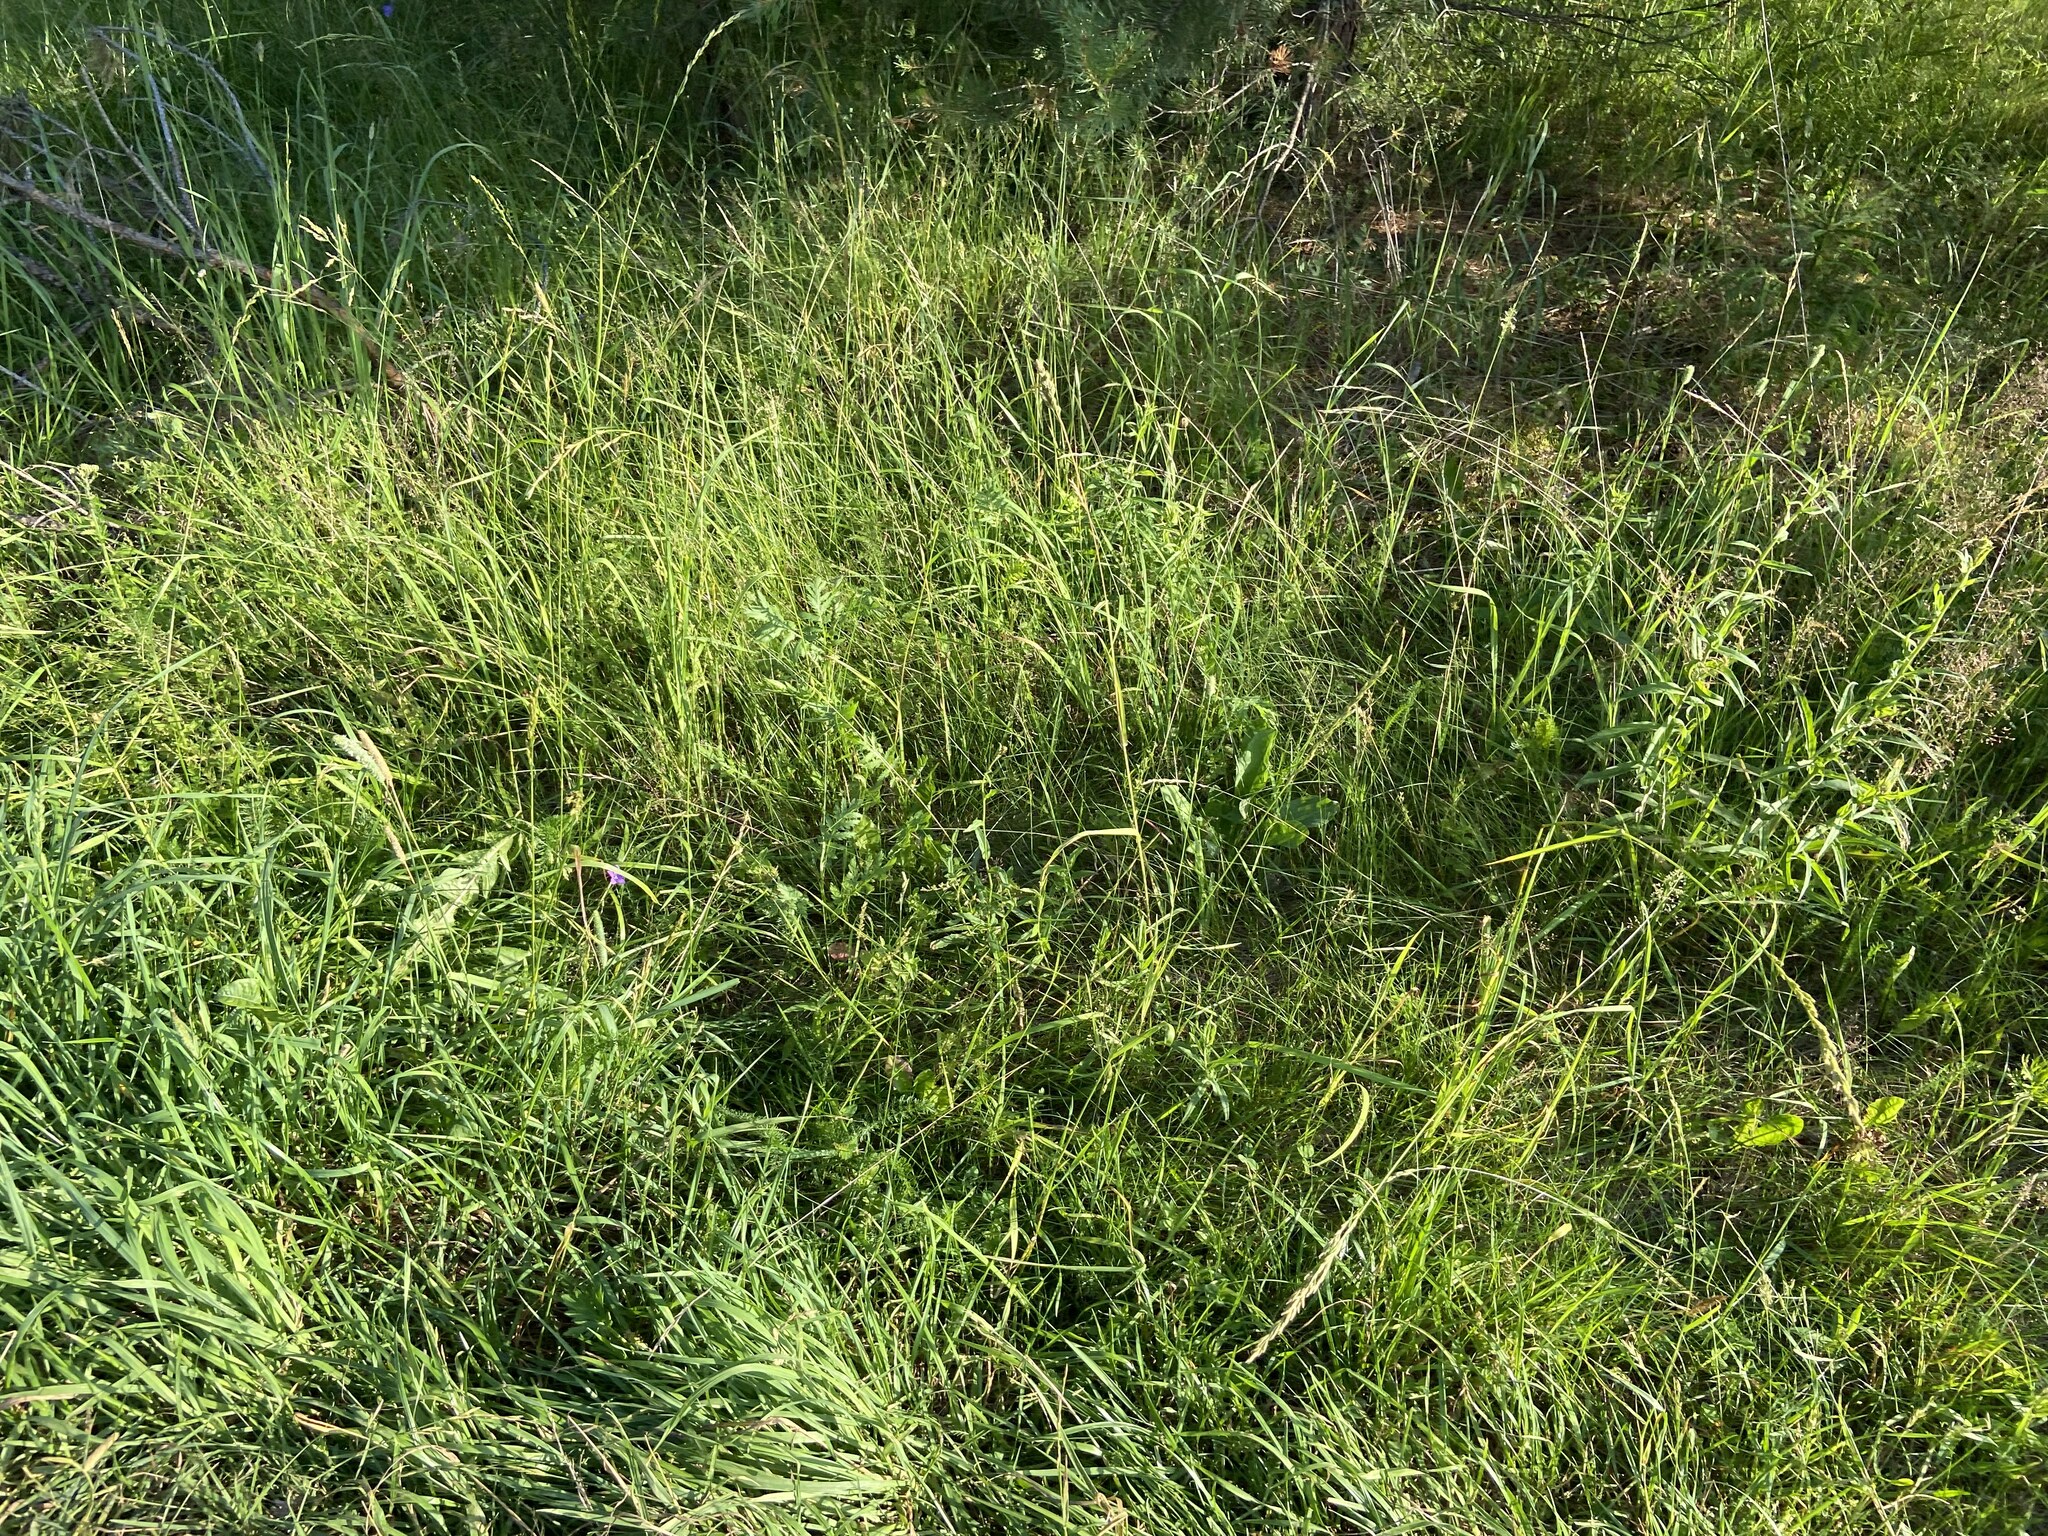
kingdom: Plantae
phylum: Tracheophyta
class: Liliopsida
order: Poales
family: Poaceae
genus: Lolium
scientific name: Lolium pratense
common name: Dover grass
